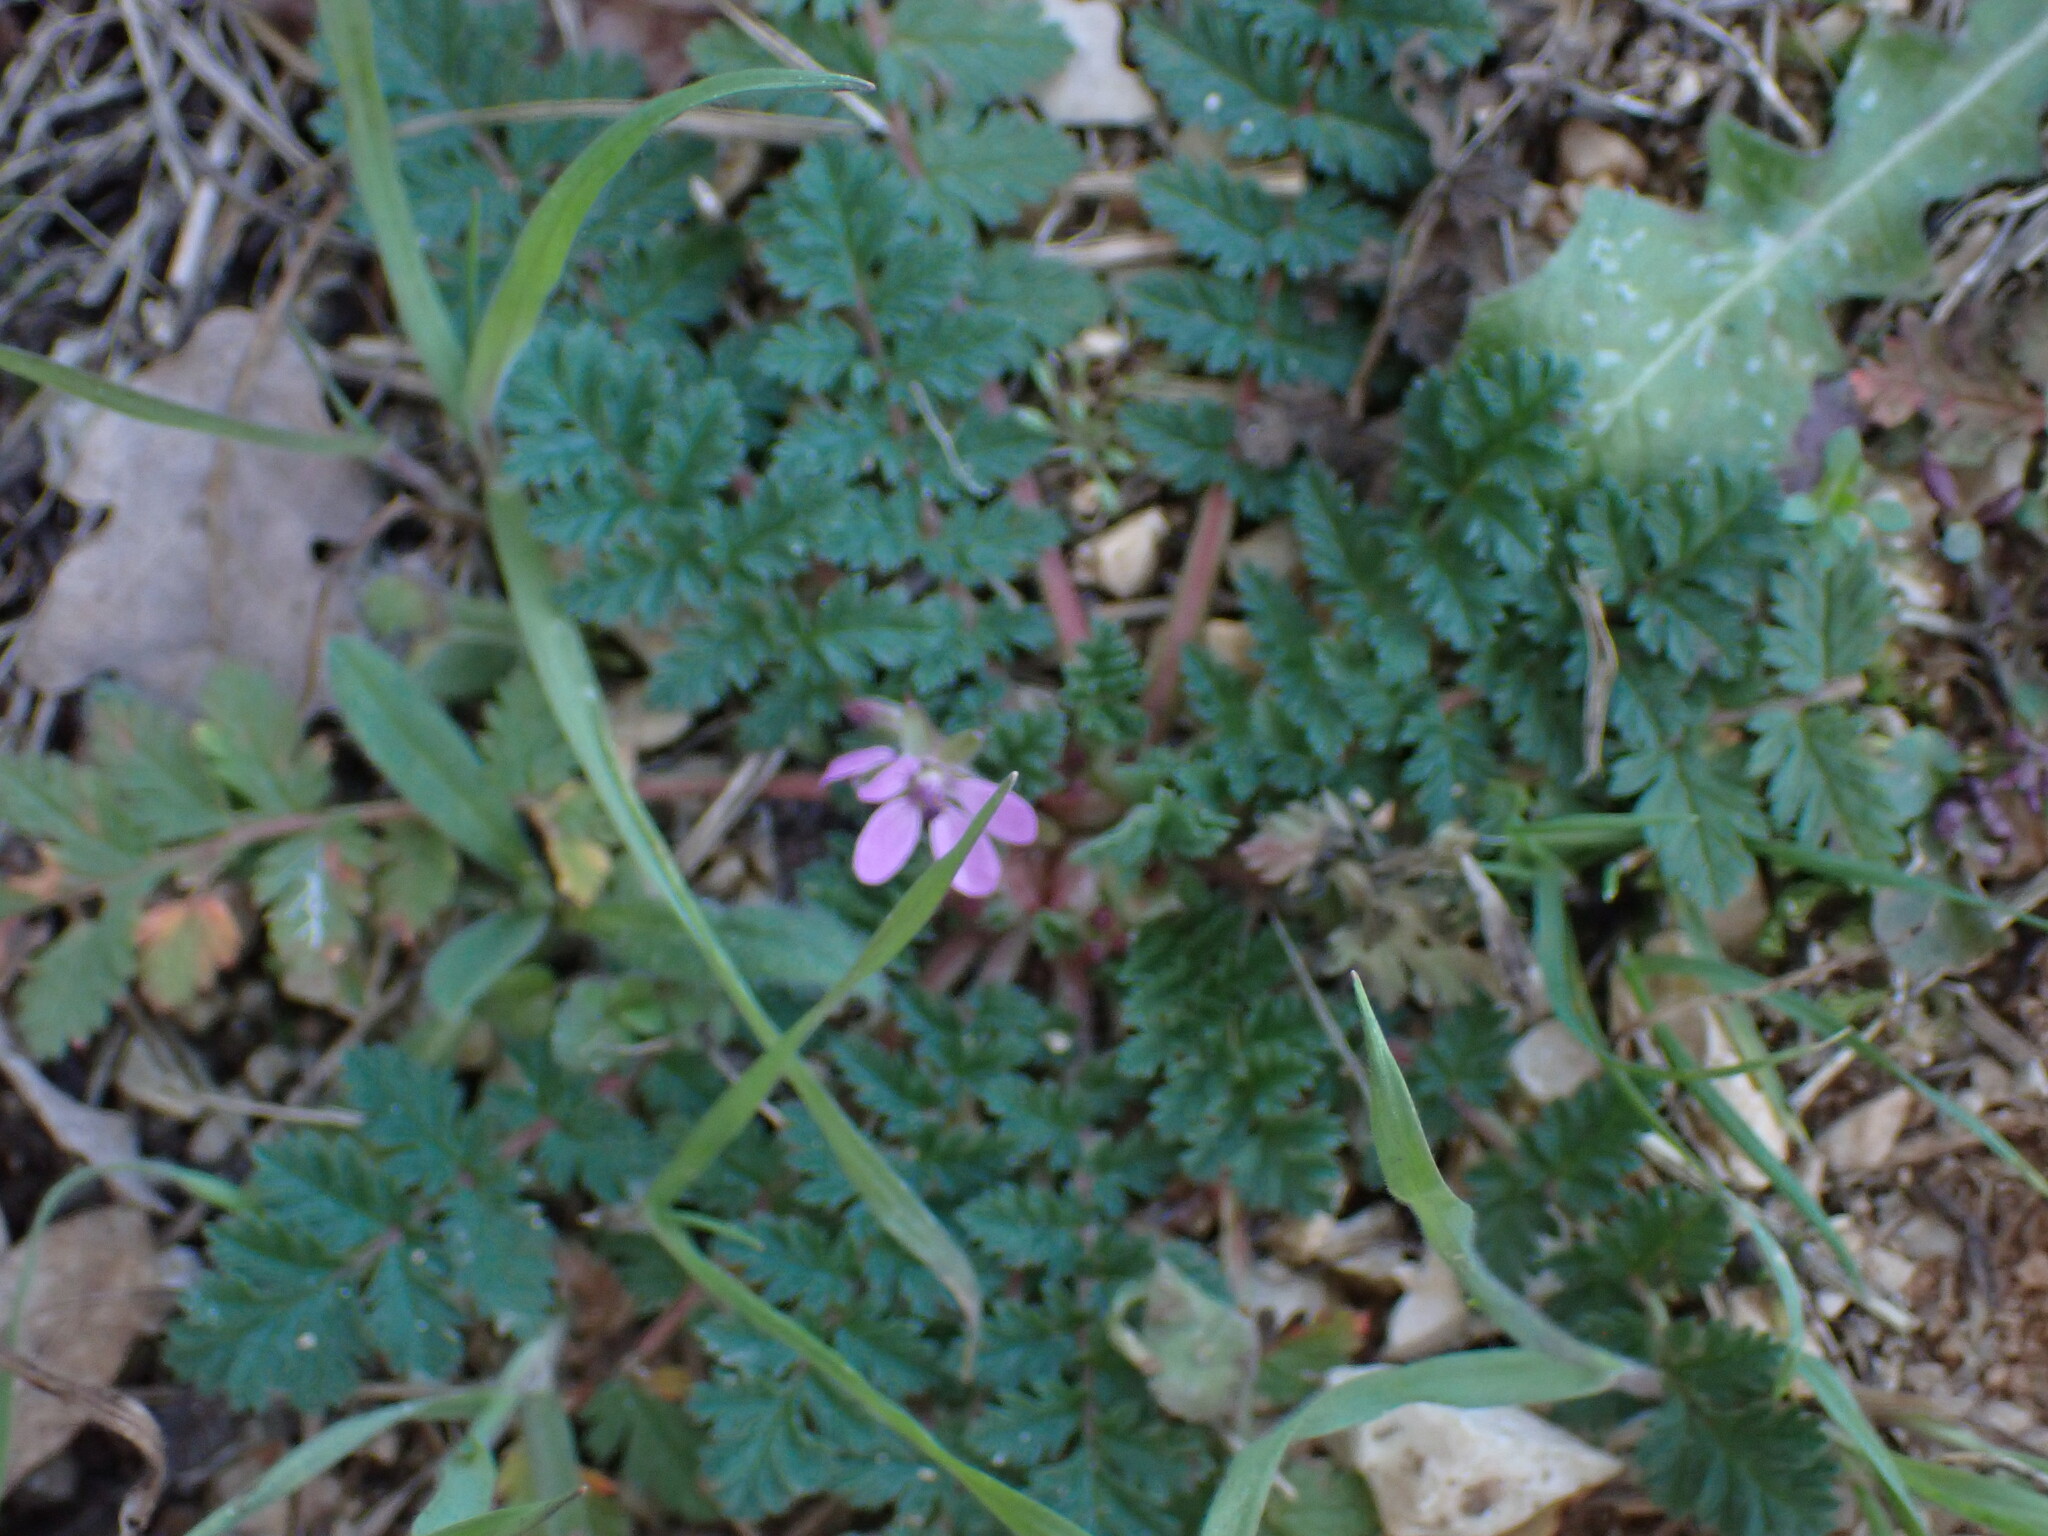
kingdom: Plantae
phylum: Tracheophyta
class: Magnoliopsida
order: Geraniales
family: Geraniaceae
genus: Erodium
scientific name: Erodium cicutarium
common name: Common stork's-bill
